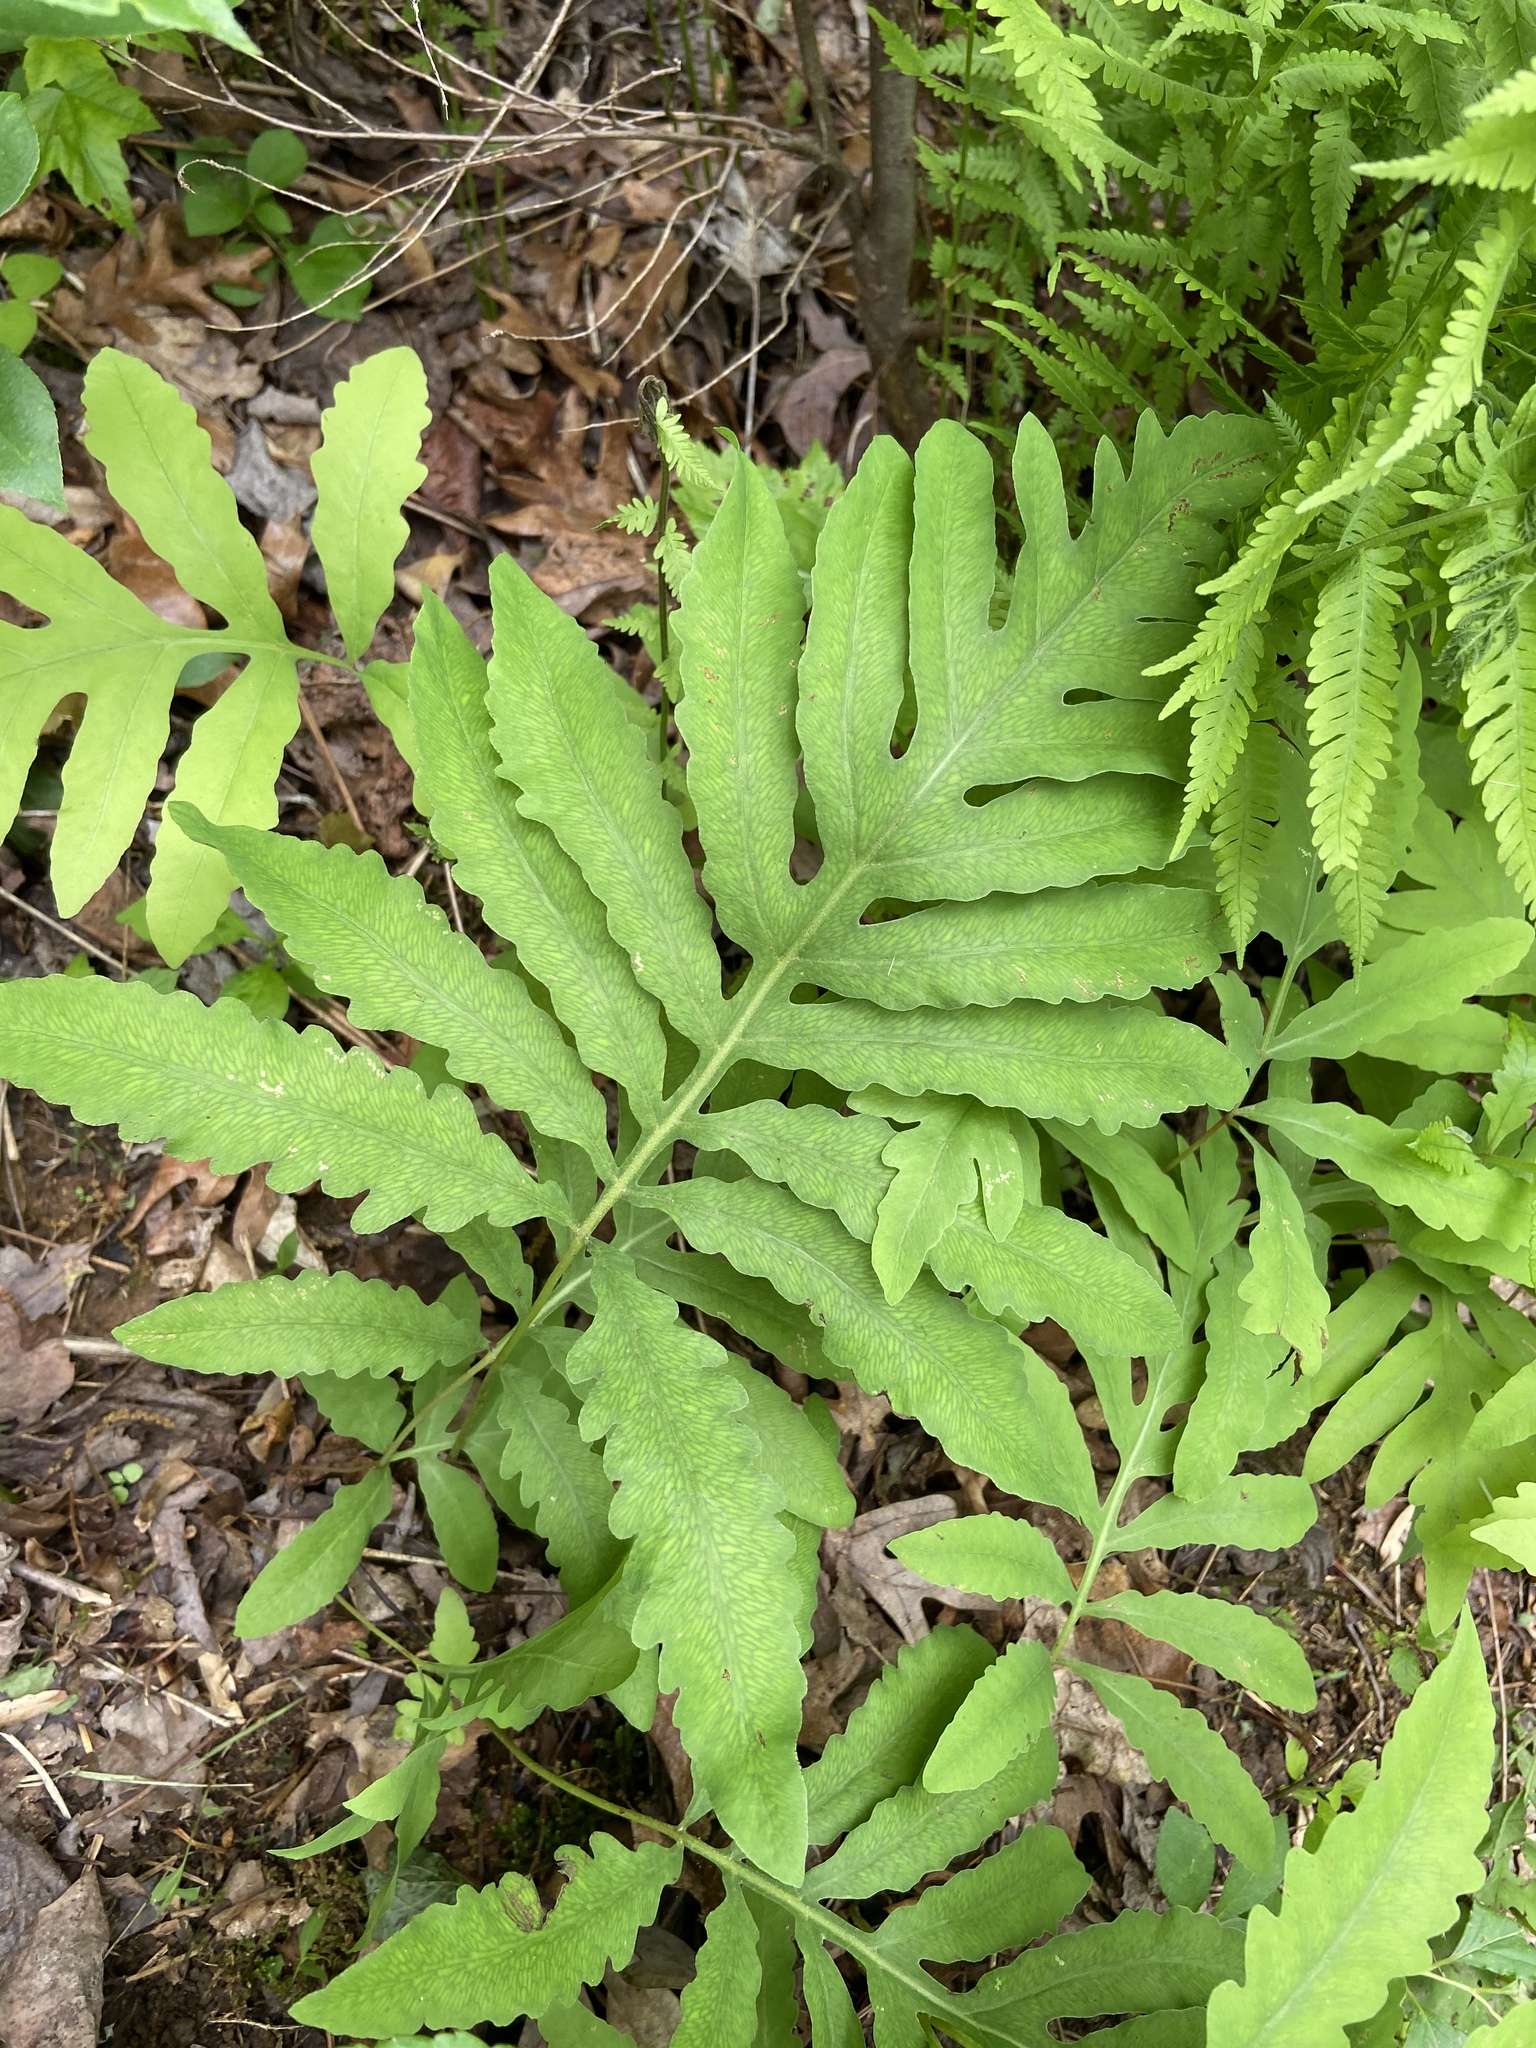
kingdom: Plantae
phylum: Tracheophyta
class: Polypodiopsida
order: Polypodiales
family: Onocleaceae
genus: Onoclea
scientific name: Onoclea sensibilis
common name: Sensitive fern
